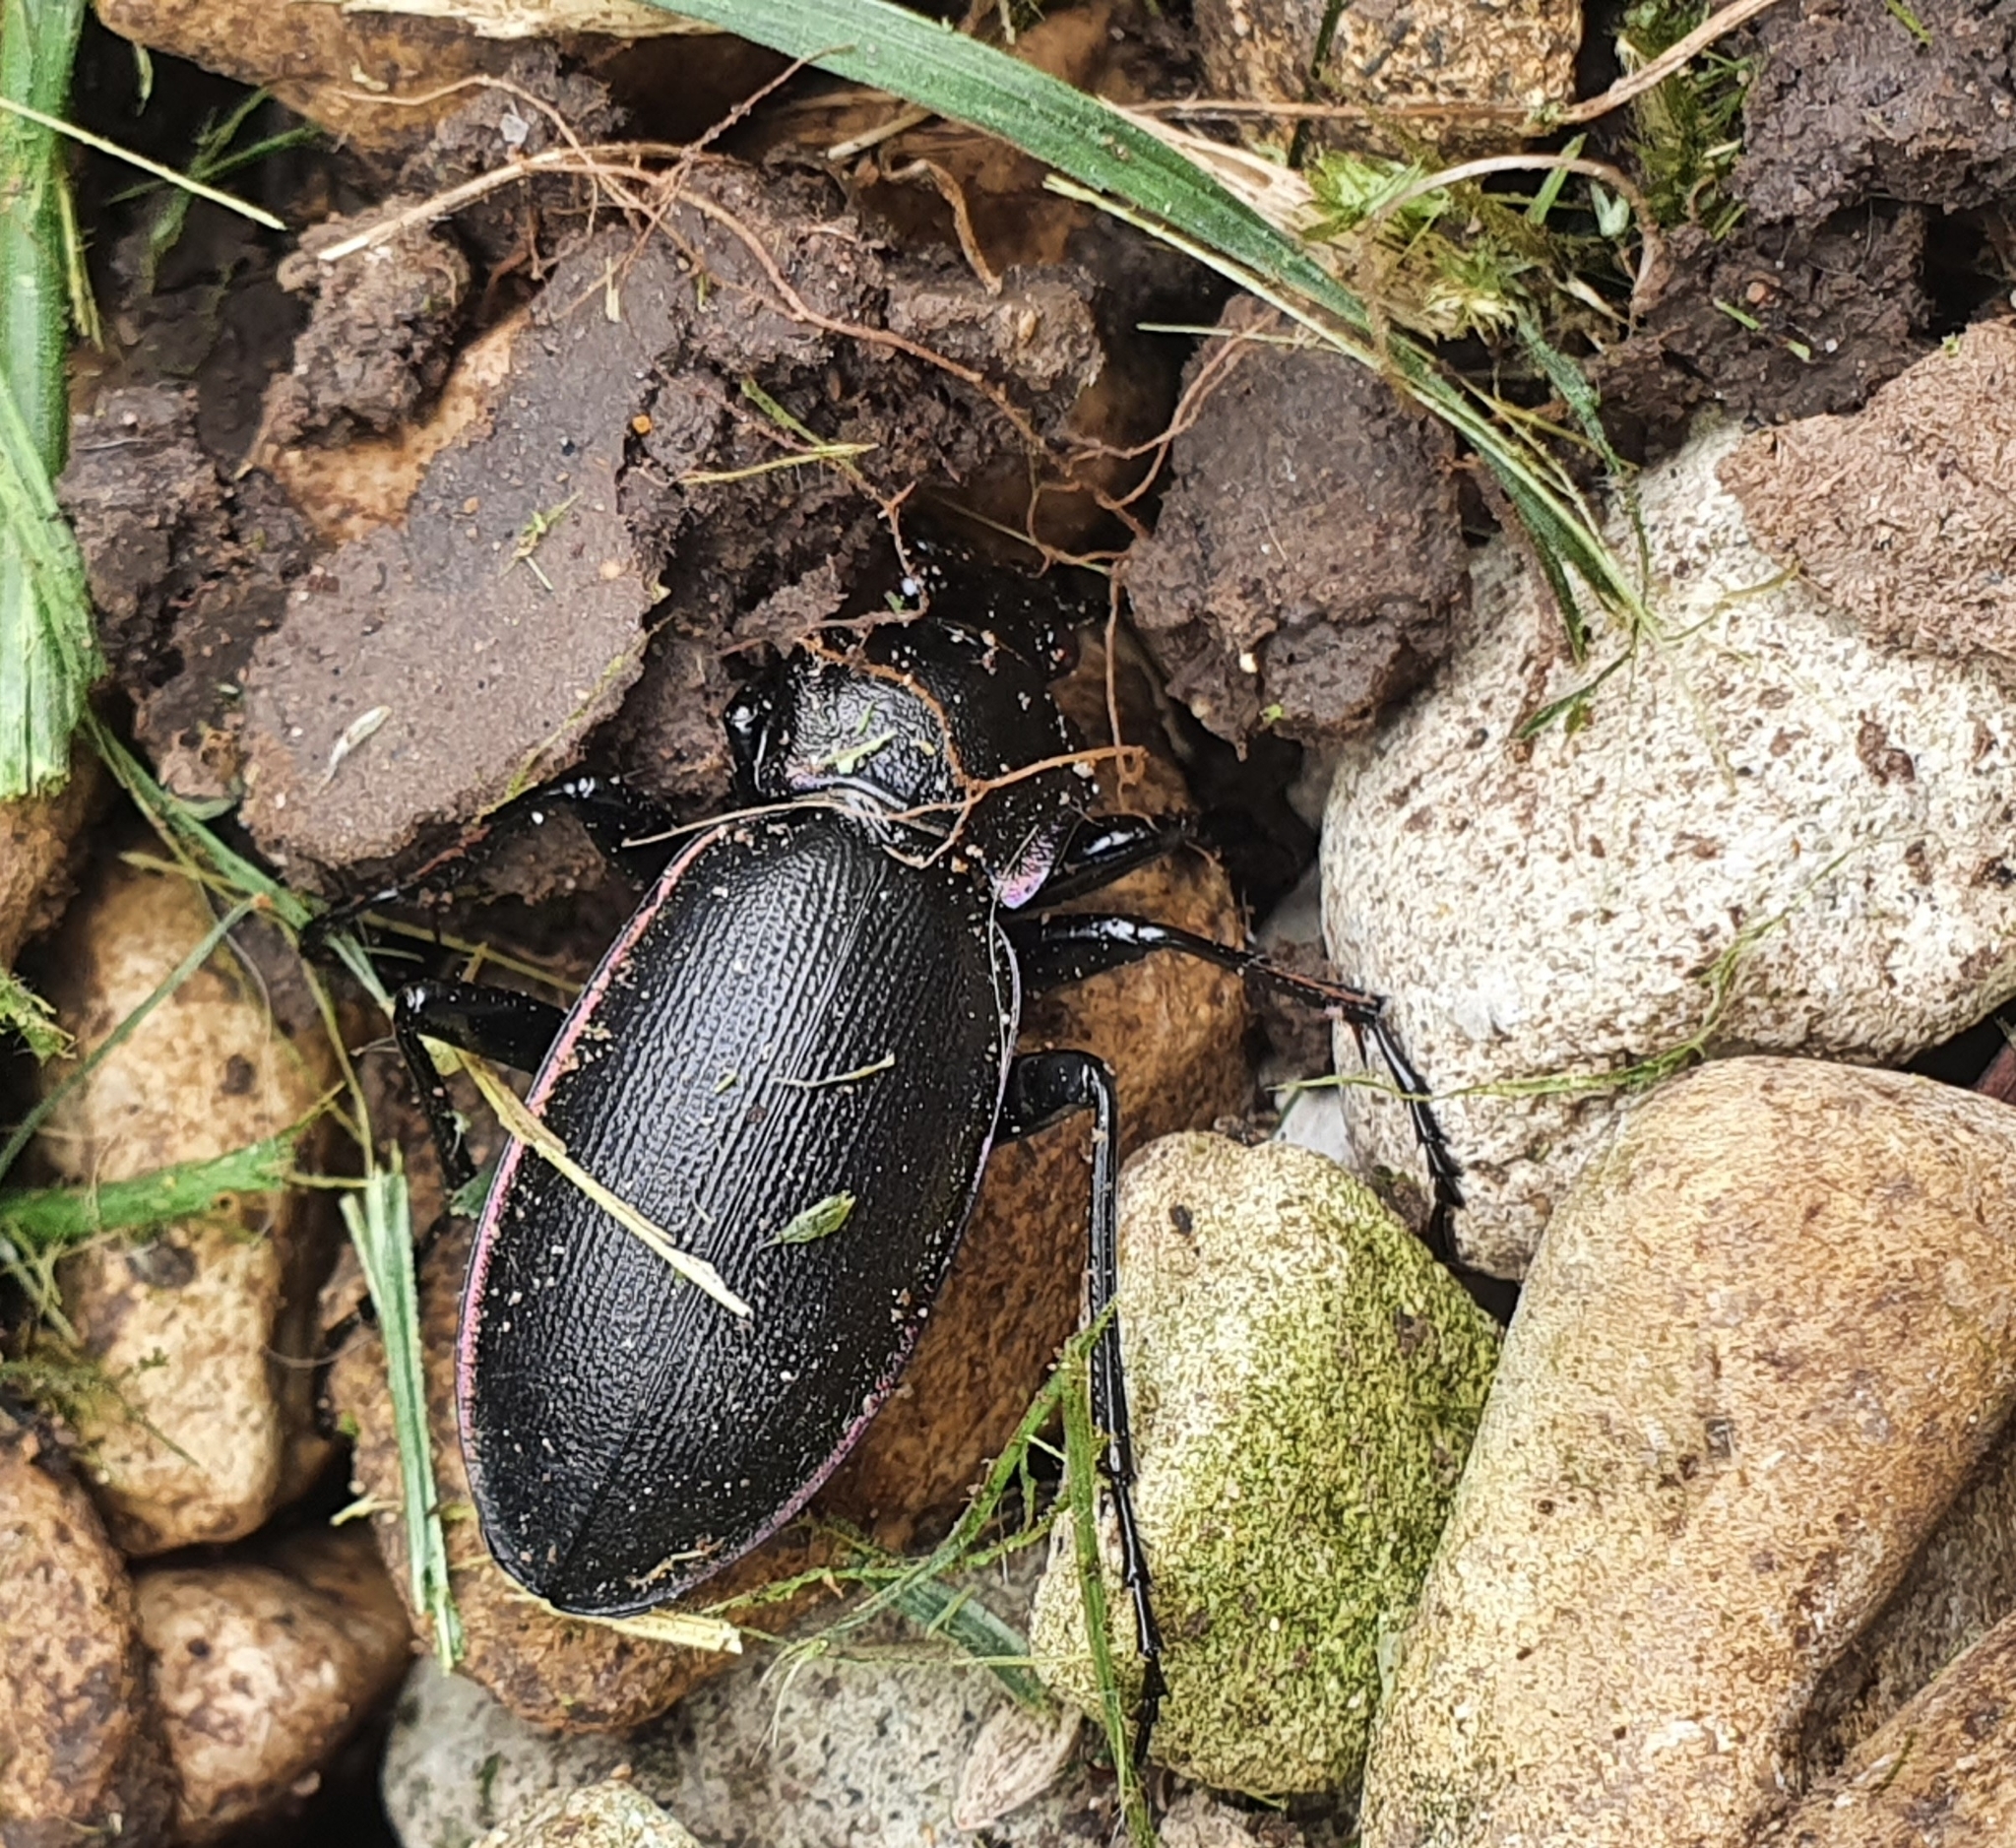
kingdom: Animalia
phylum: Arthropoda
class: Insecta
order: Coleoptera
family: Carabidae
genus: Carabus
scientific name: Carabus violaceus
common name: Violet ground beetle
